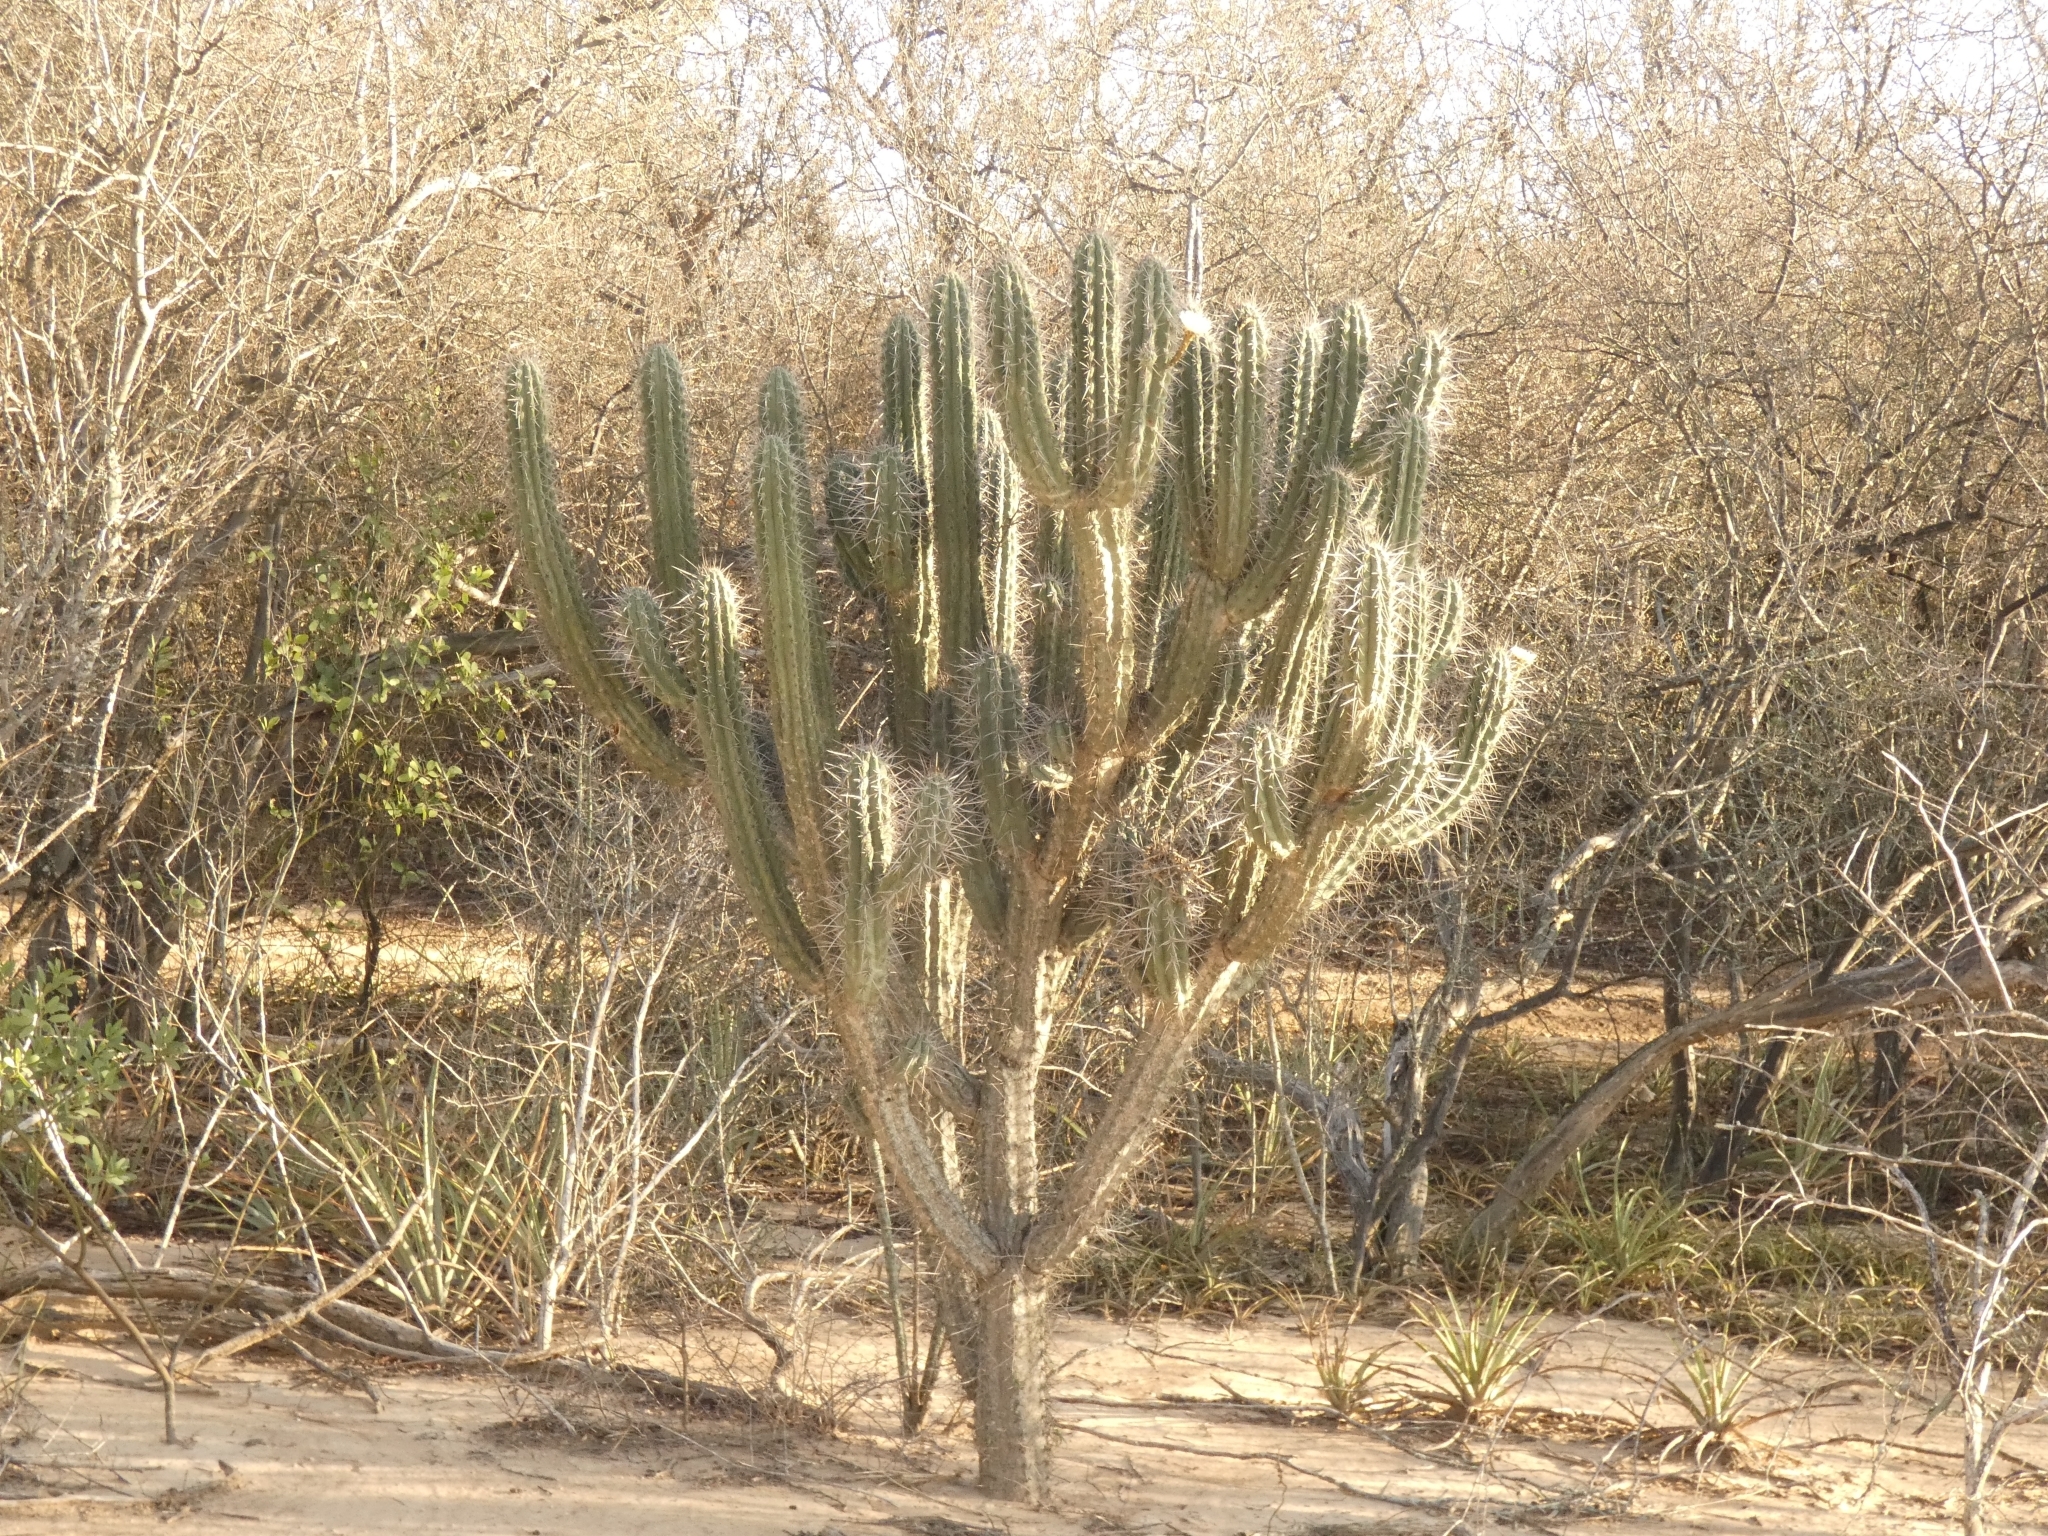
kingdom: Plantae
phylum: Tracheophyta
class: Magnoliopsida
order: Caryophyllales
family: Cactaceae
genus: Stetsonia
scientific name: Stetsonia coryne
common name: Toothpick cactus
